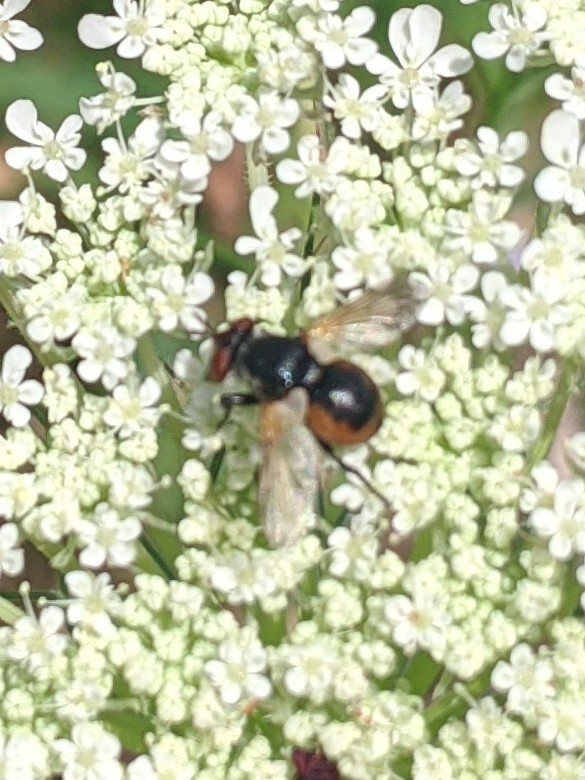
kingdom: Animalia
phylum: Arthropoda
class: Insecta
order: Diptera
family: Tachinidae
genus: Gymnosoma
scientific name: Gymnosoma
